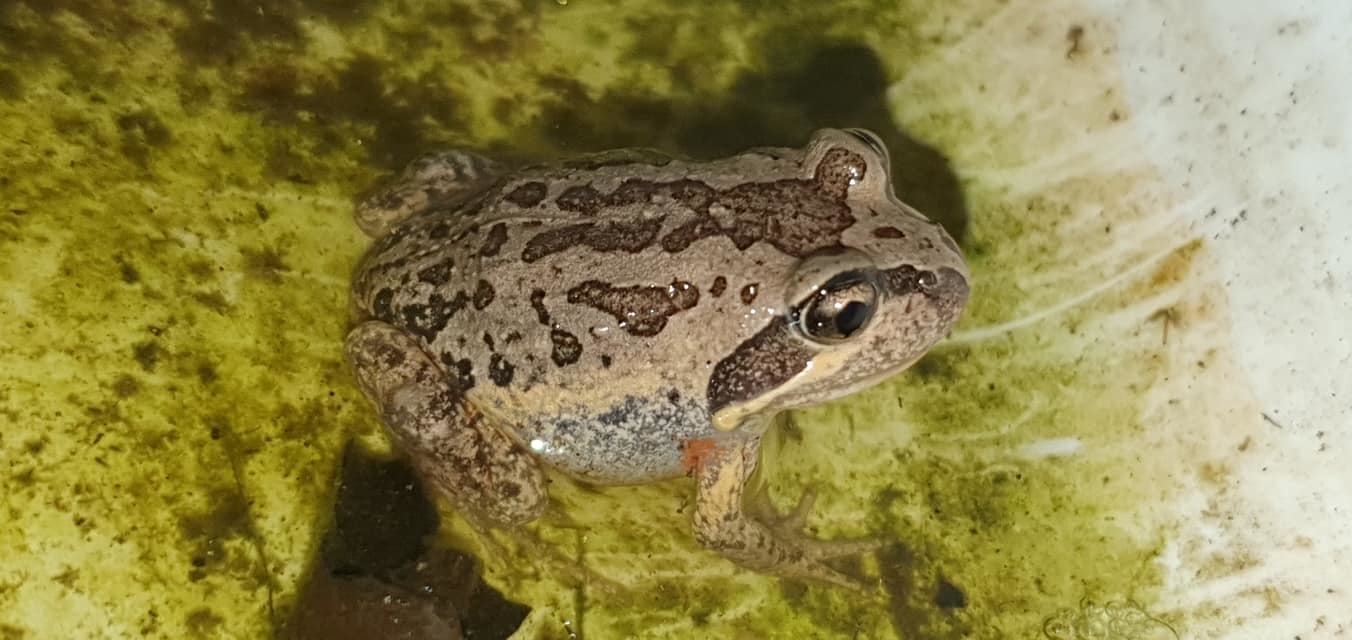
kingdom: Animalia
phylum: Chordata
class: Amphibia
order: Anura
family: Limnodynastidae
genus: Limnodynastes
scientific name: Limnodynastes terraereginae
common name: Northern banjo frog
